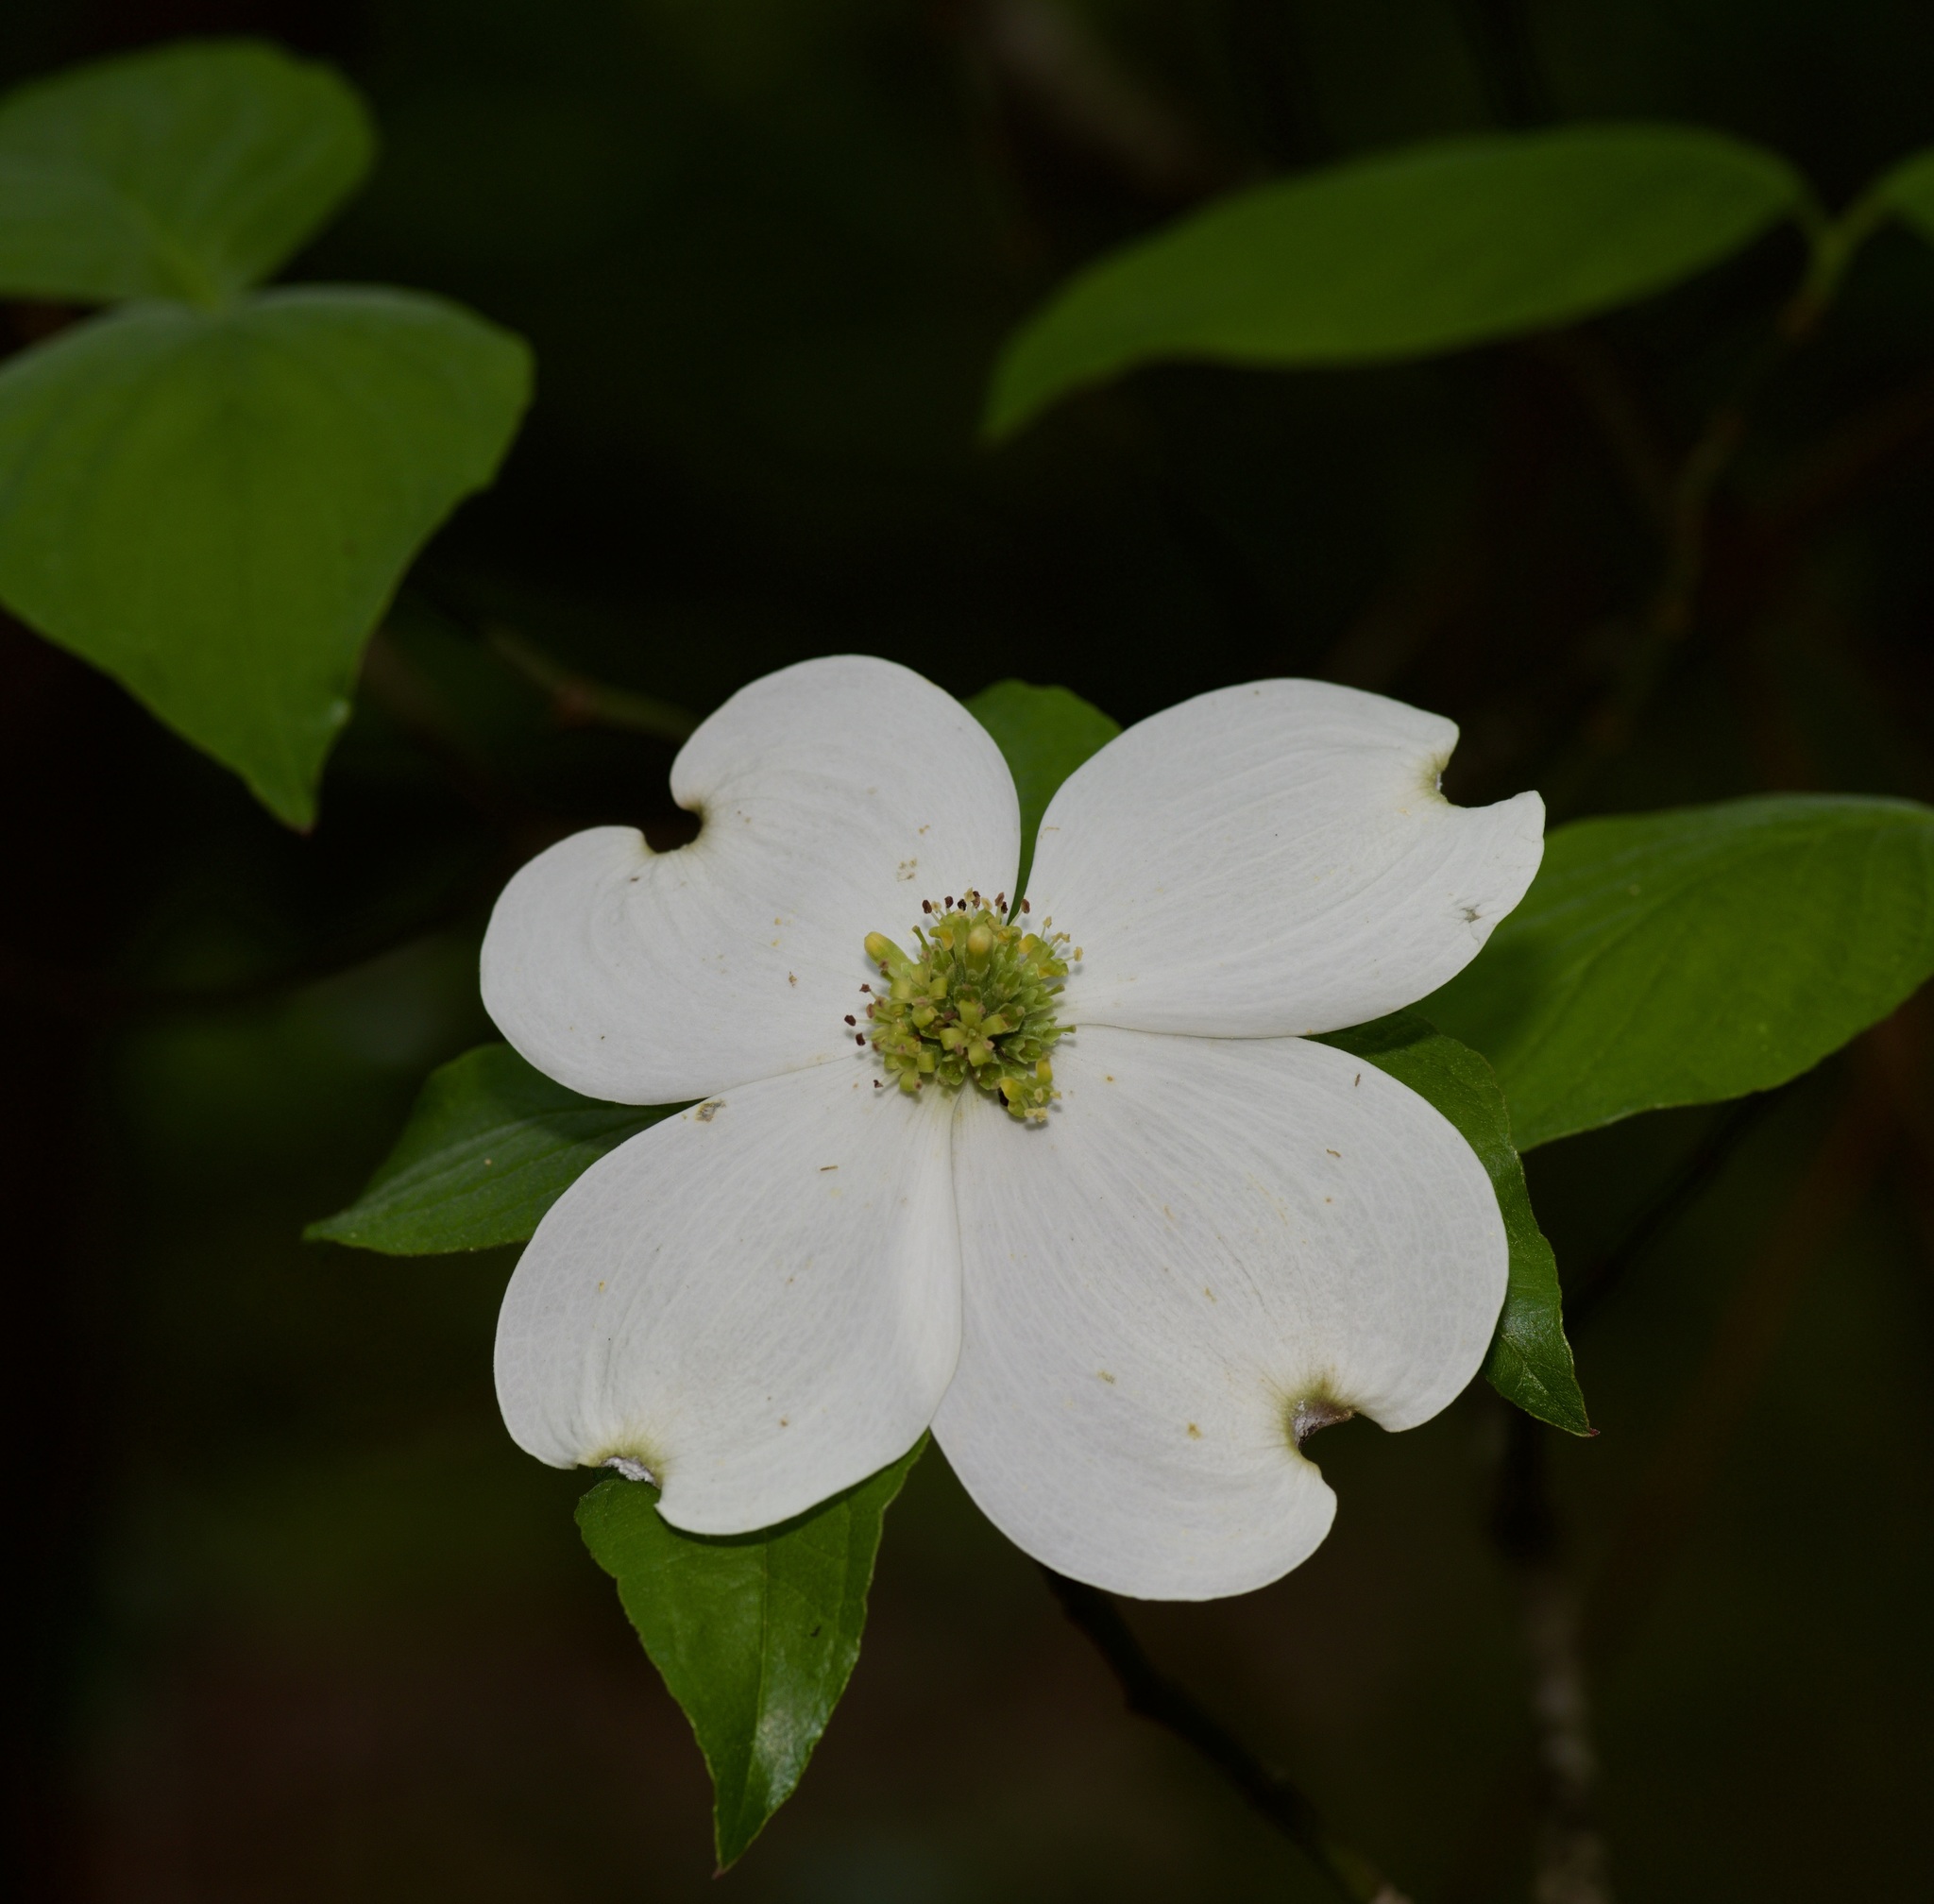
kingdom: Plantae
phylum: Tracheophyta
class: Magnoliopsida
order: Cornales
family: Cornaceae
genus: Cornus
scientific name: Cornus florida
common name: Flowering dogwood
